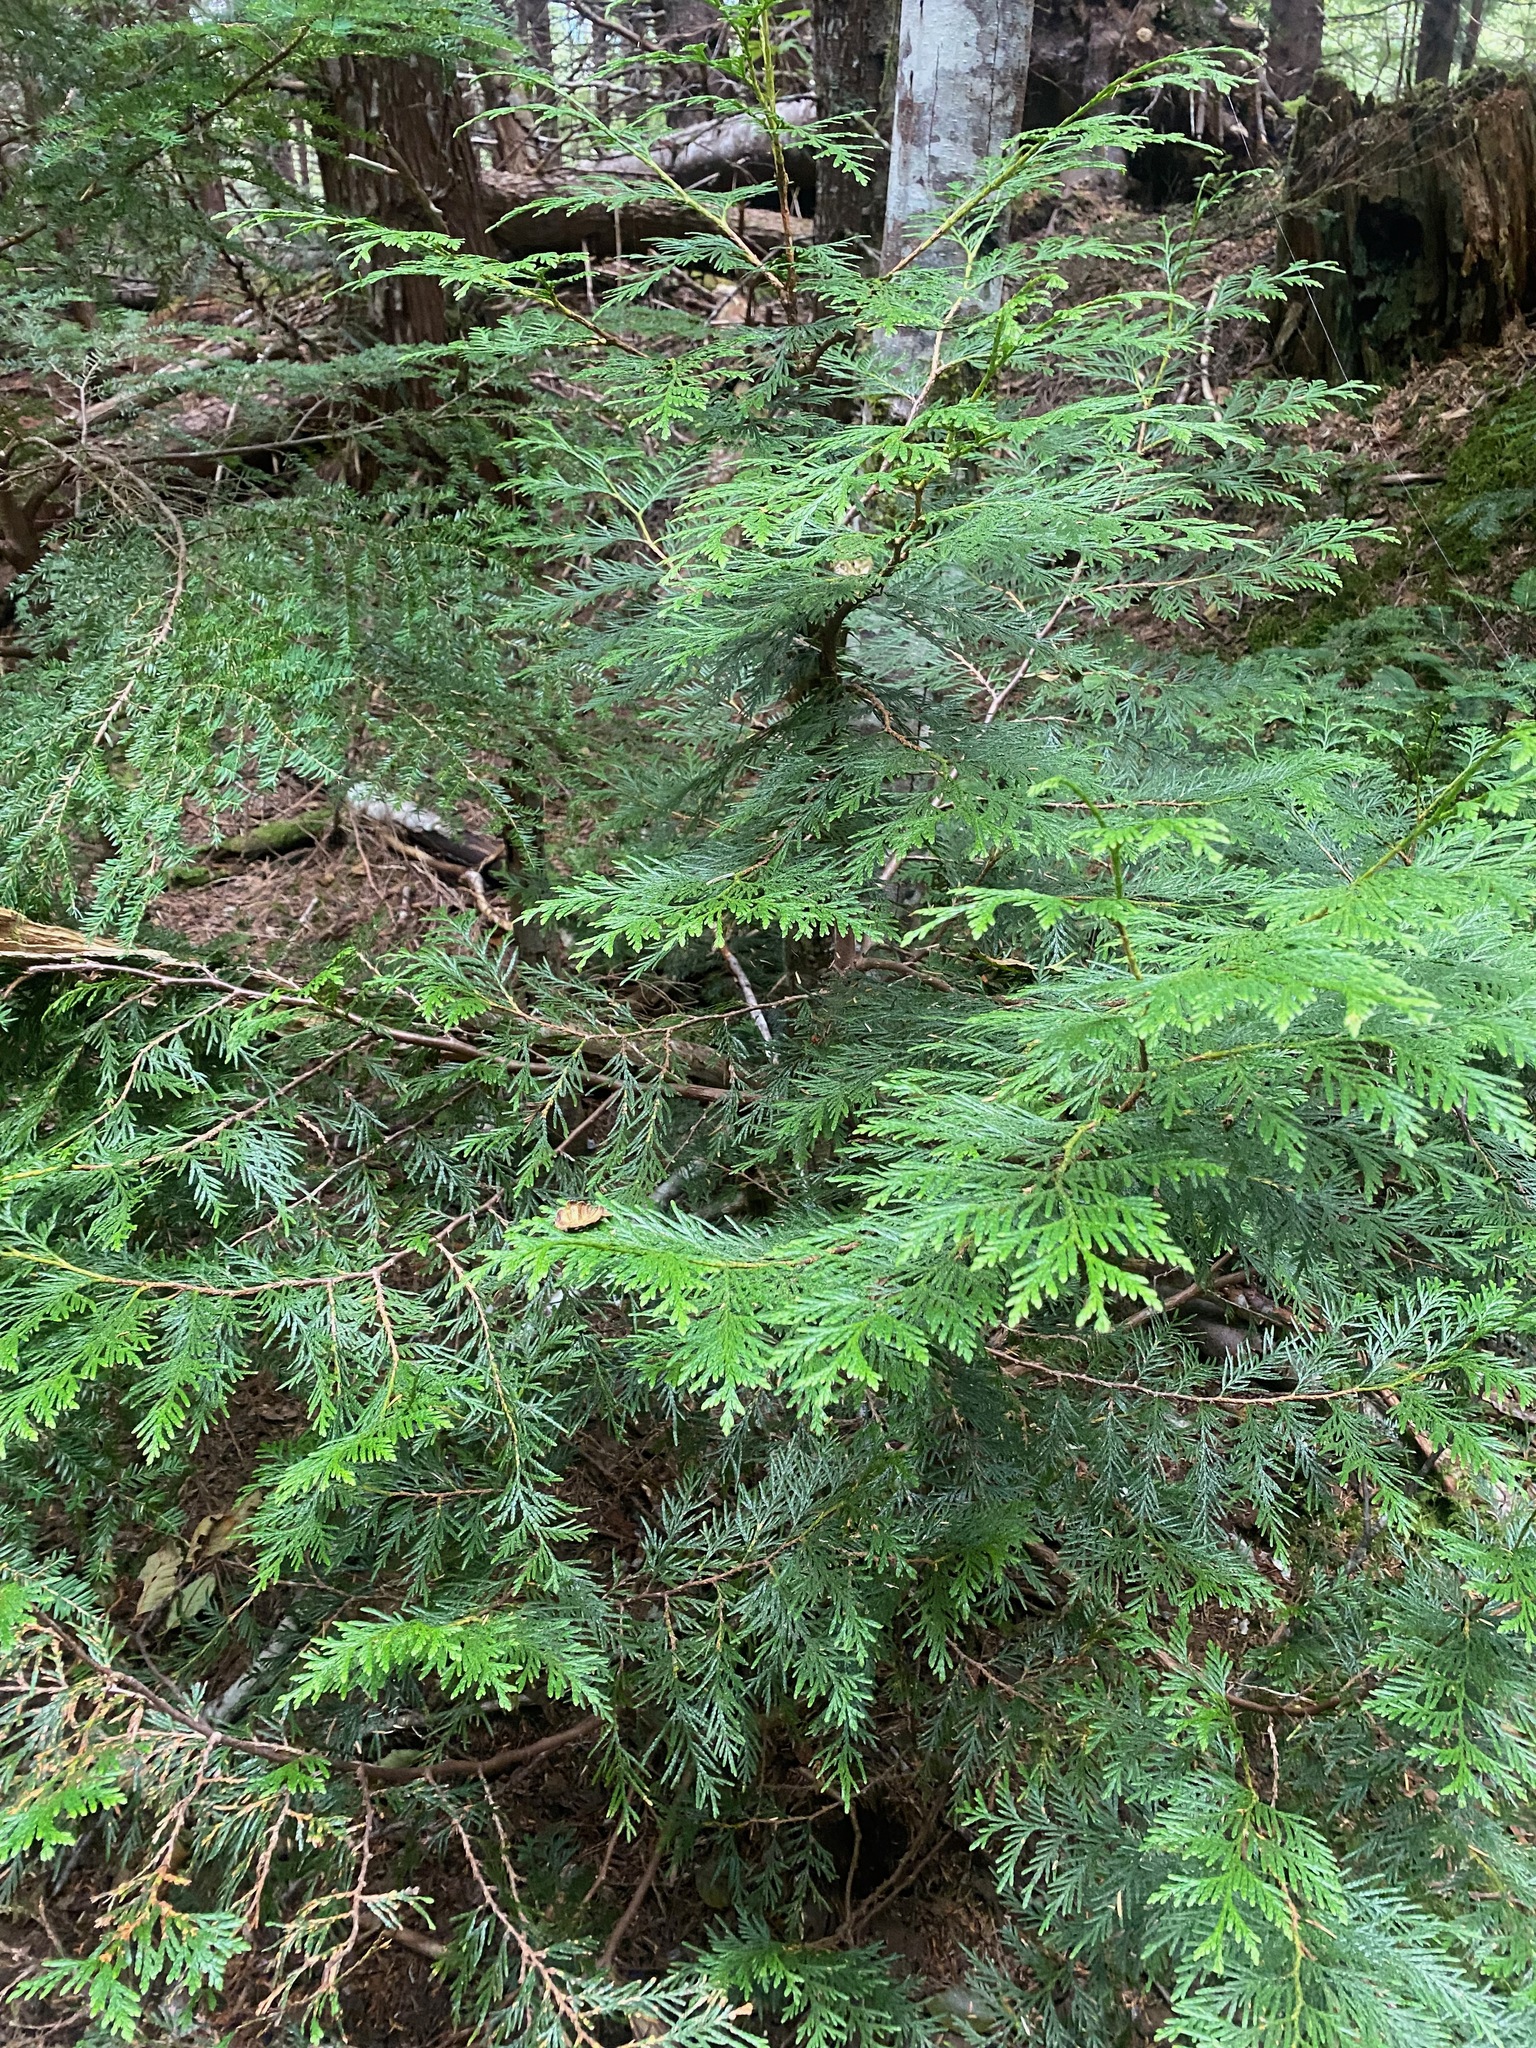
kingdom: Plantae
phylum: Tracheophyta
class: Pinopsida
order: Pinales
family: Cupressaceae
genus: Thuja
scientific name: Thuja plicata
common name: Western red-cedar
